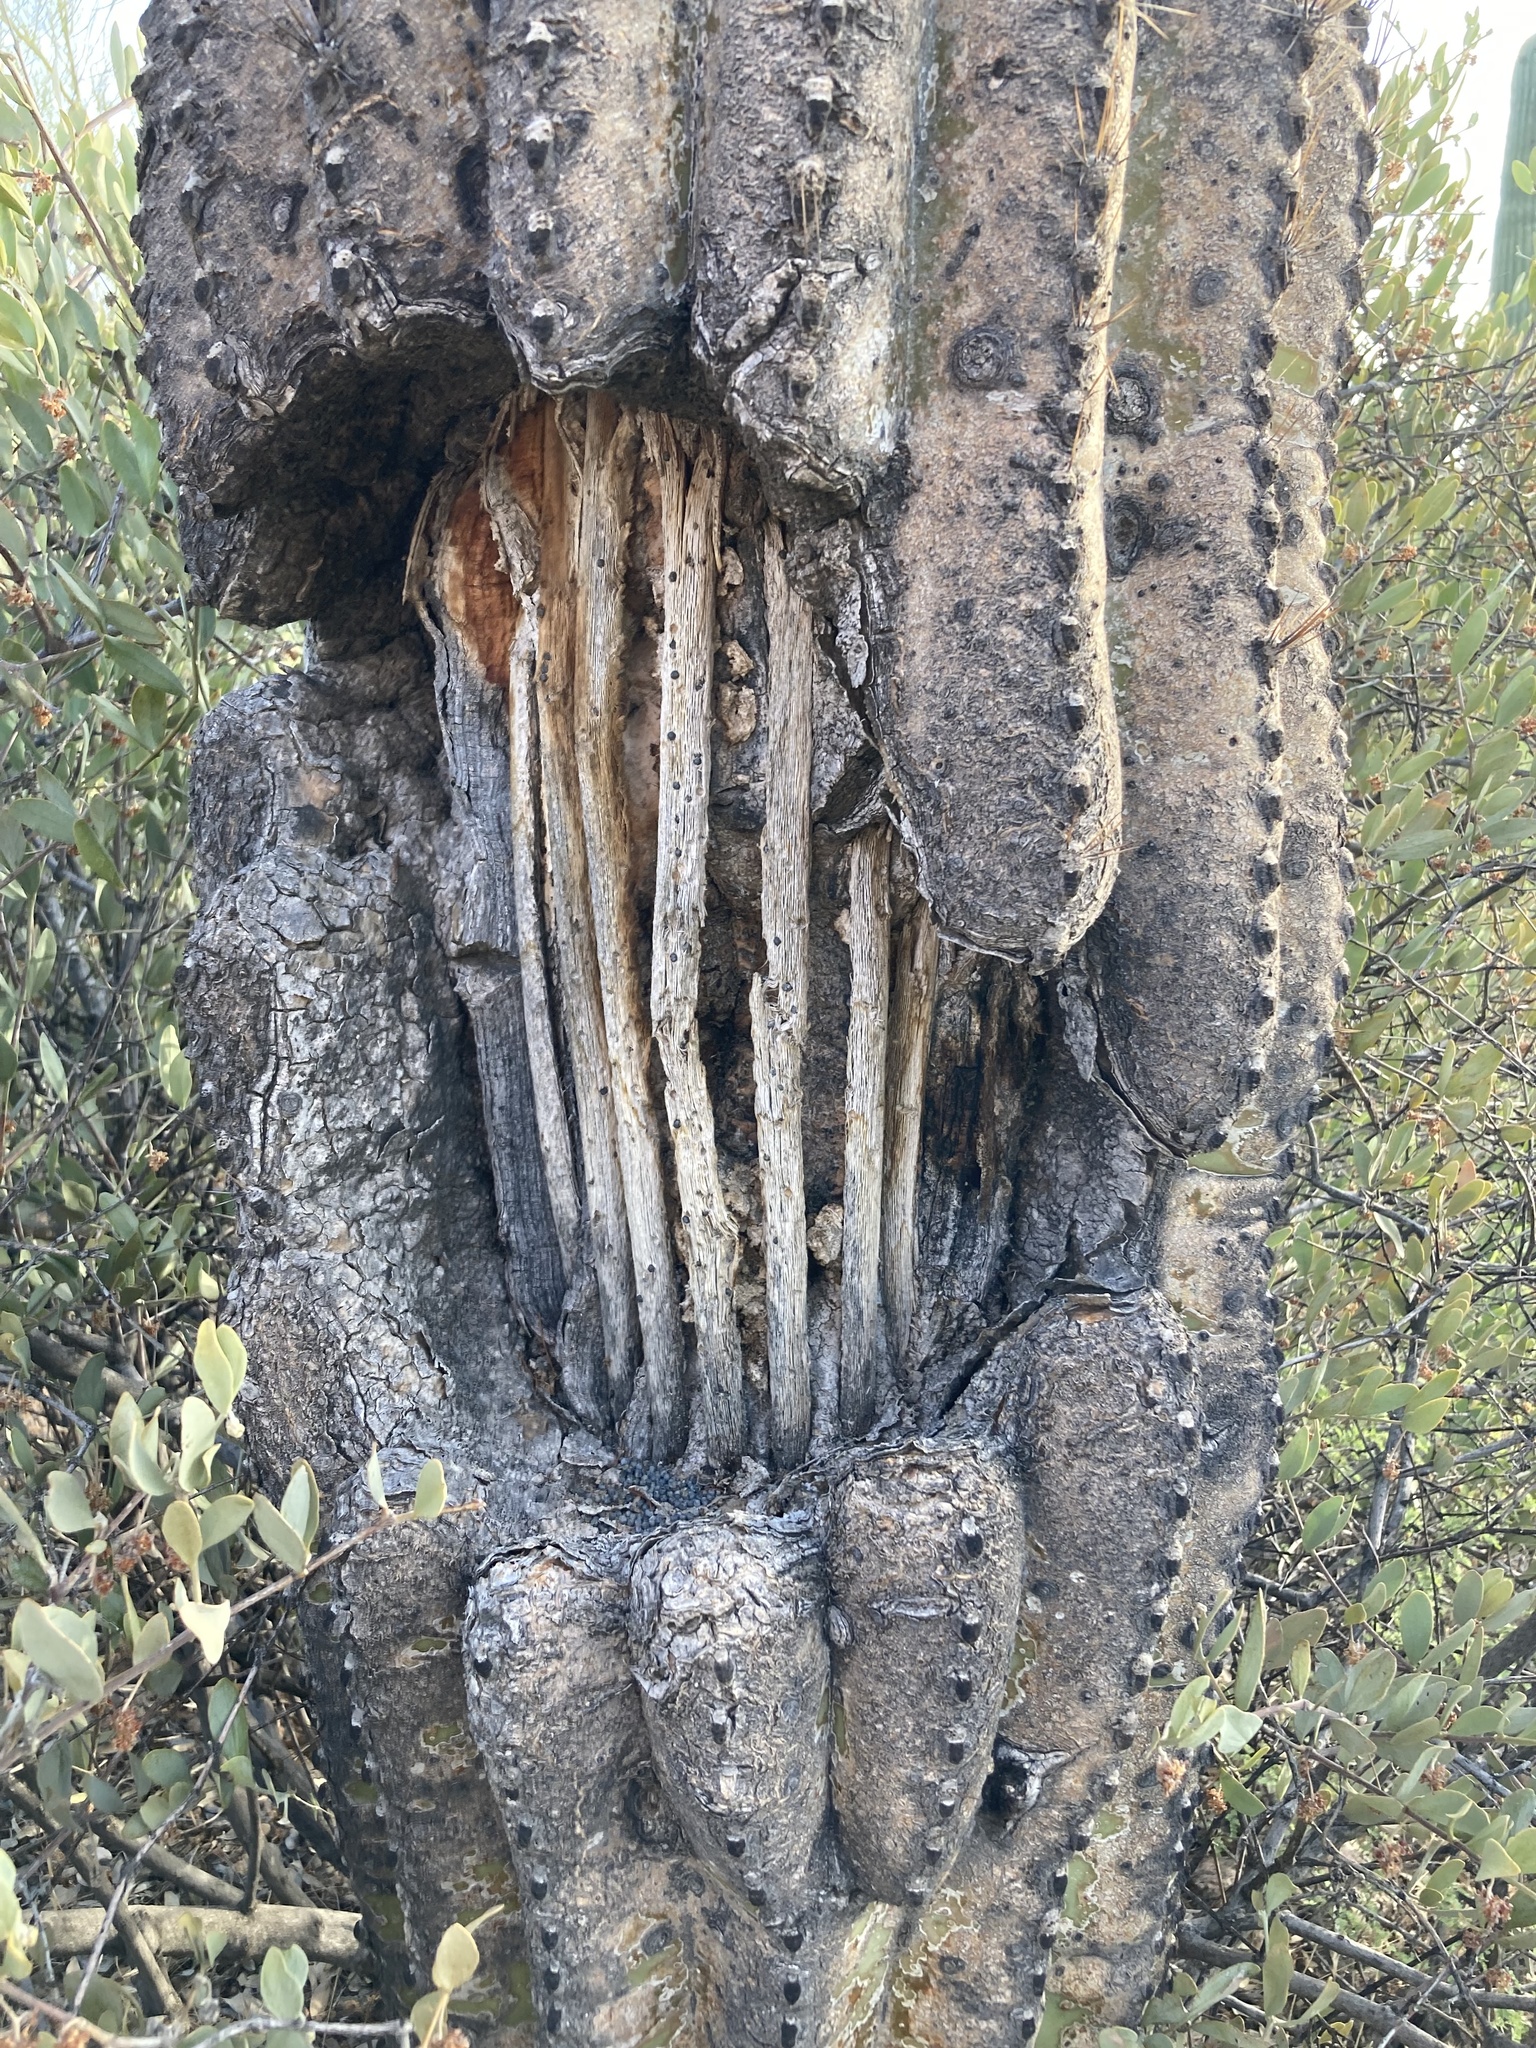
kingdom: Plantae
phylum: Tracheophyta
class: Magnoliopsida
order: Caryophyllales
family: Cactaceae
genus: Carnegiea
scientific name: Carnegiea gigantea
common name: Saguaro
